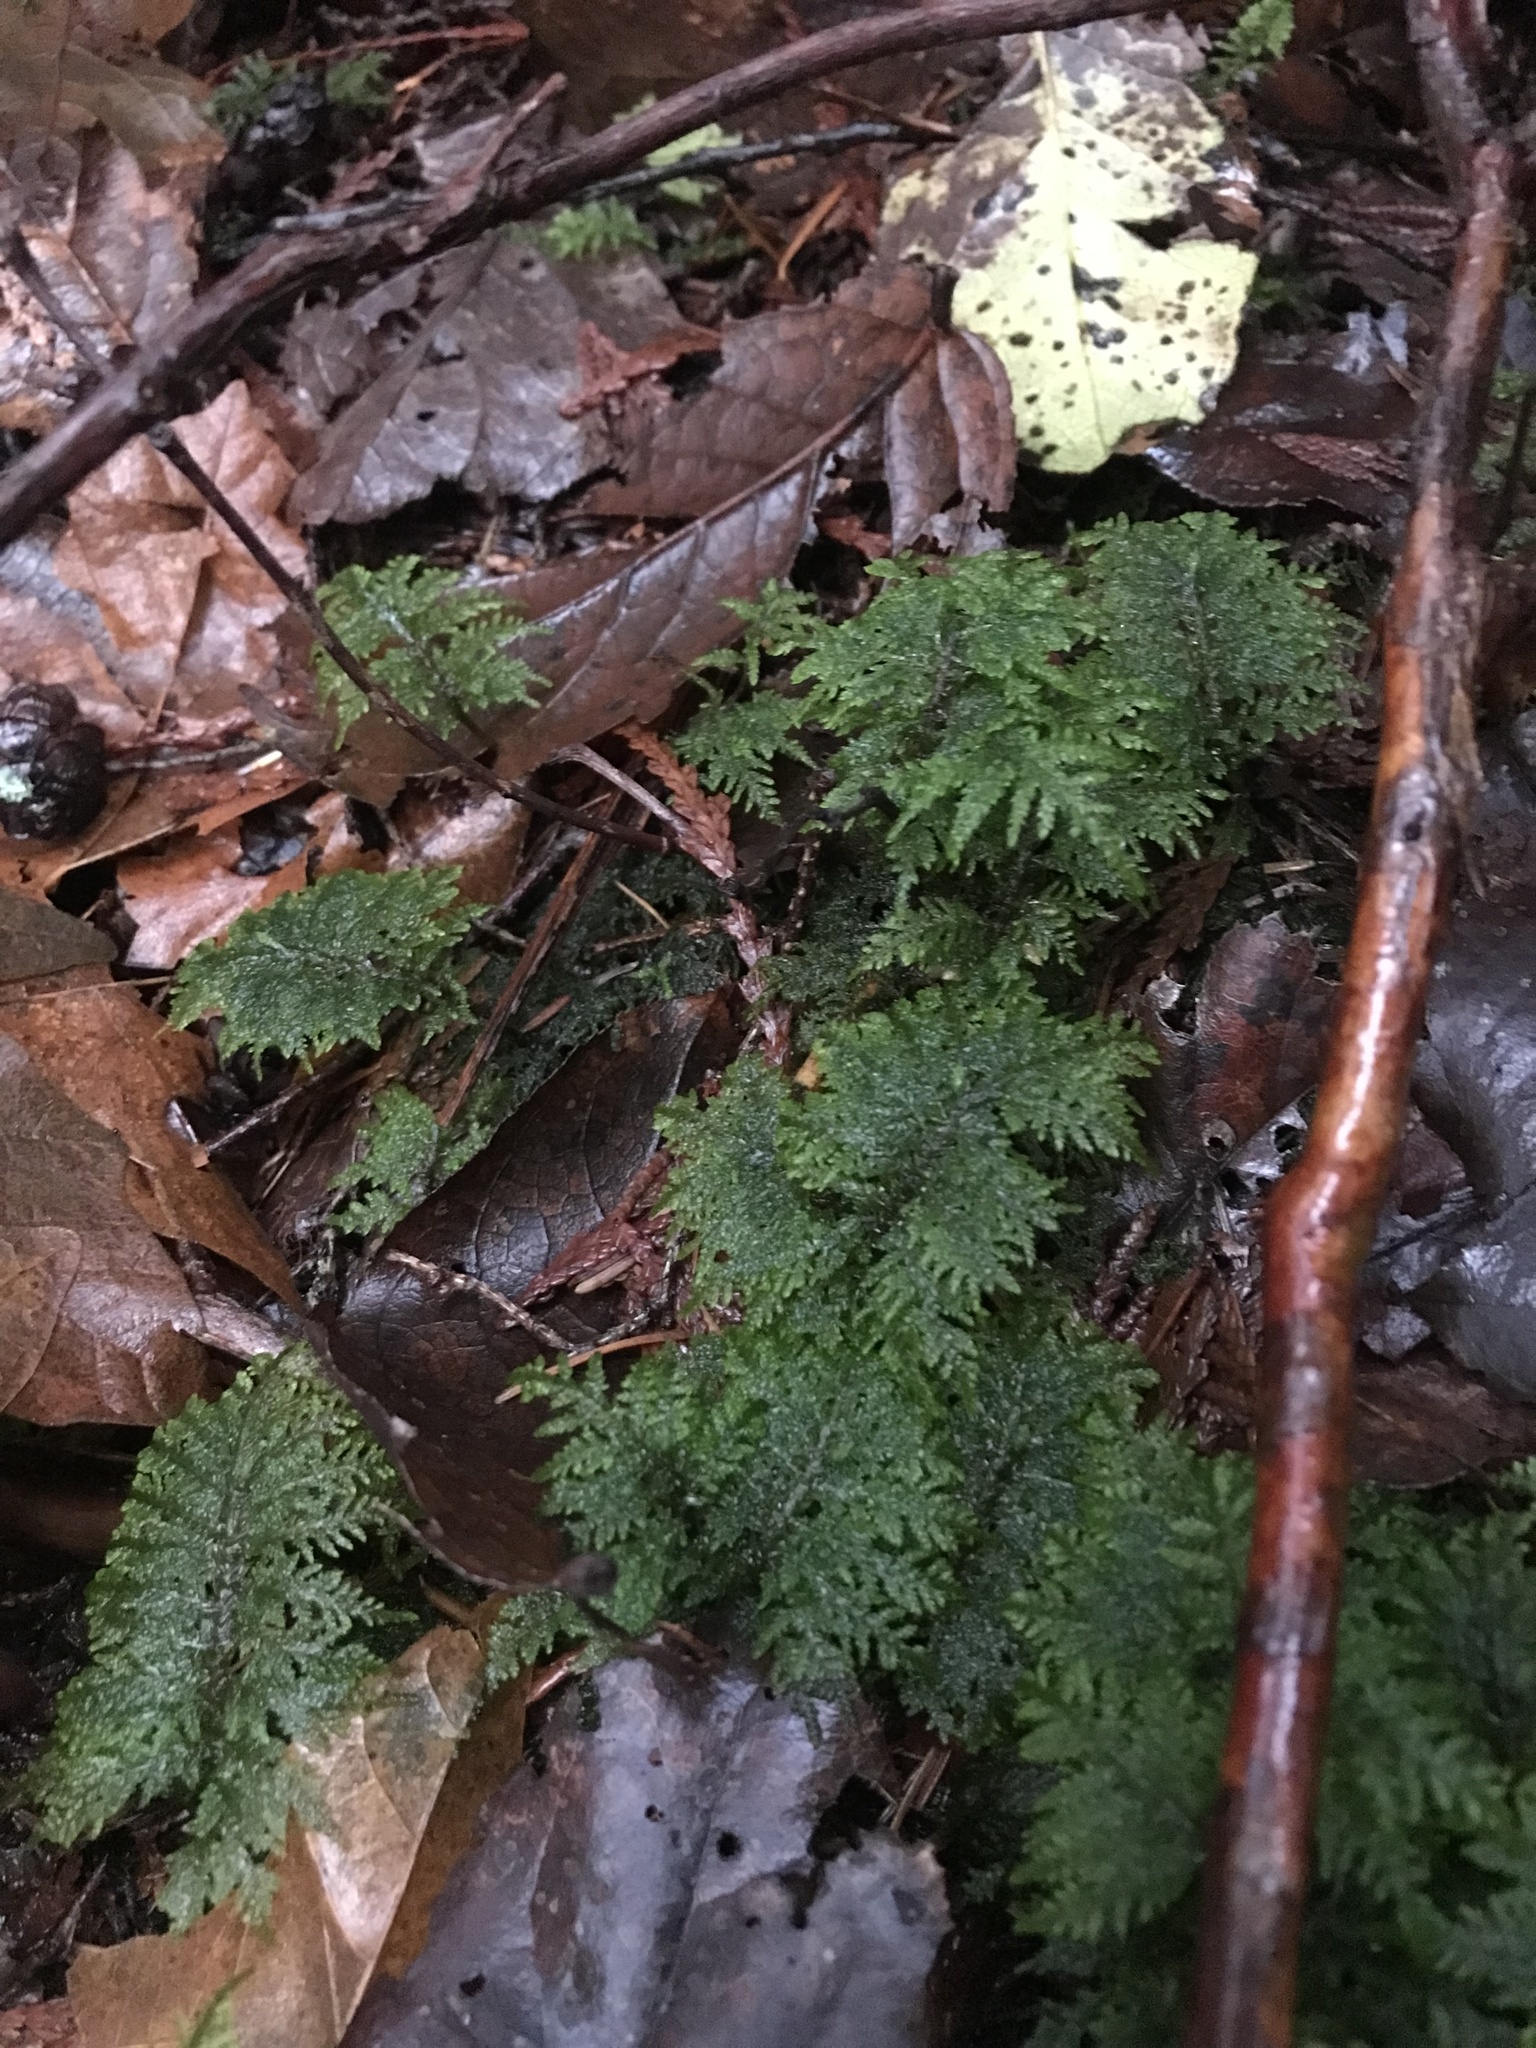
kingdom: Plantae
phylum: Bryophyta
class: Bryopsida
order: Hypnales
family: Hylocomiaceae
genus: Hylocomium
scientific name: Hylocomium splendens
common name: Stairstep moss
